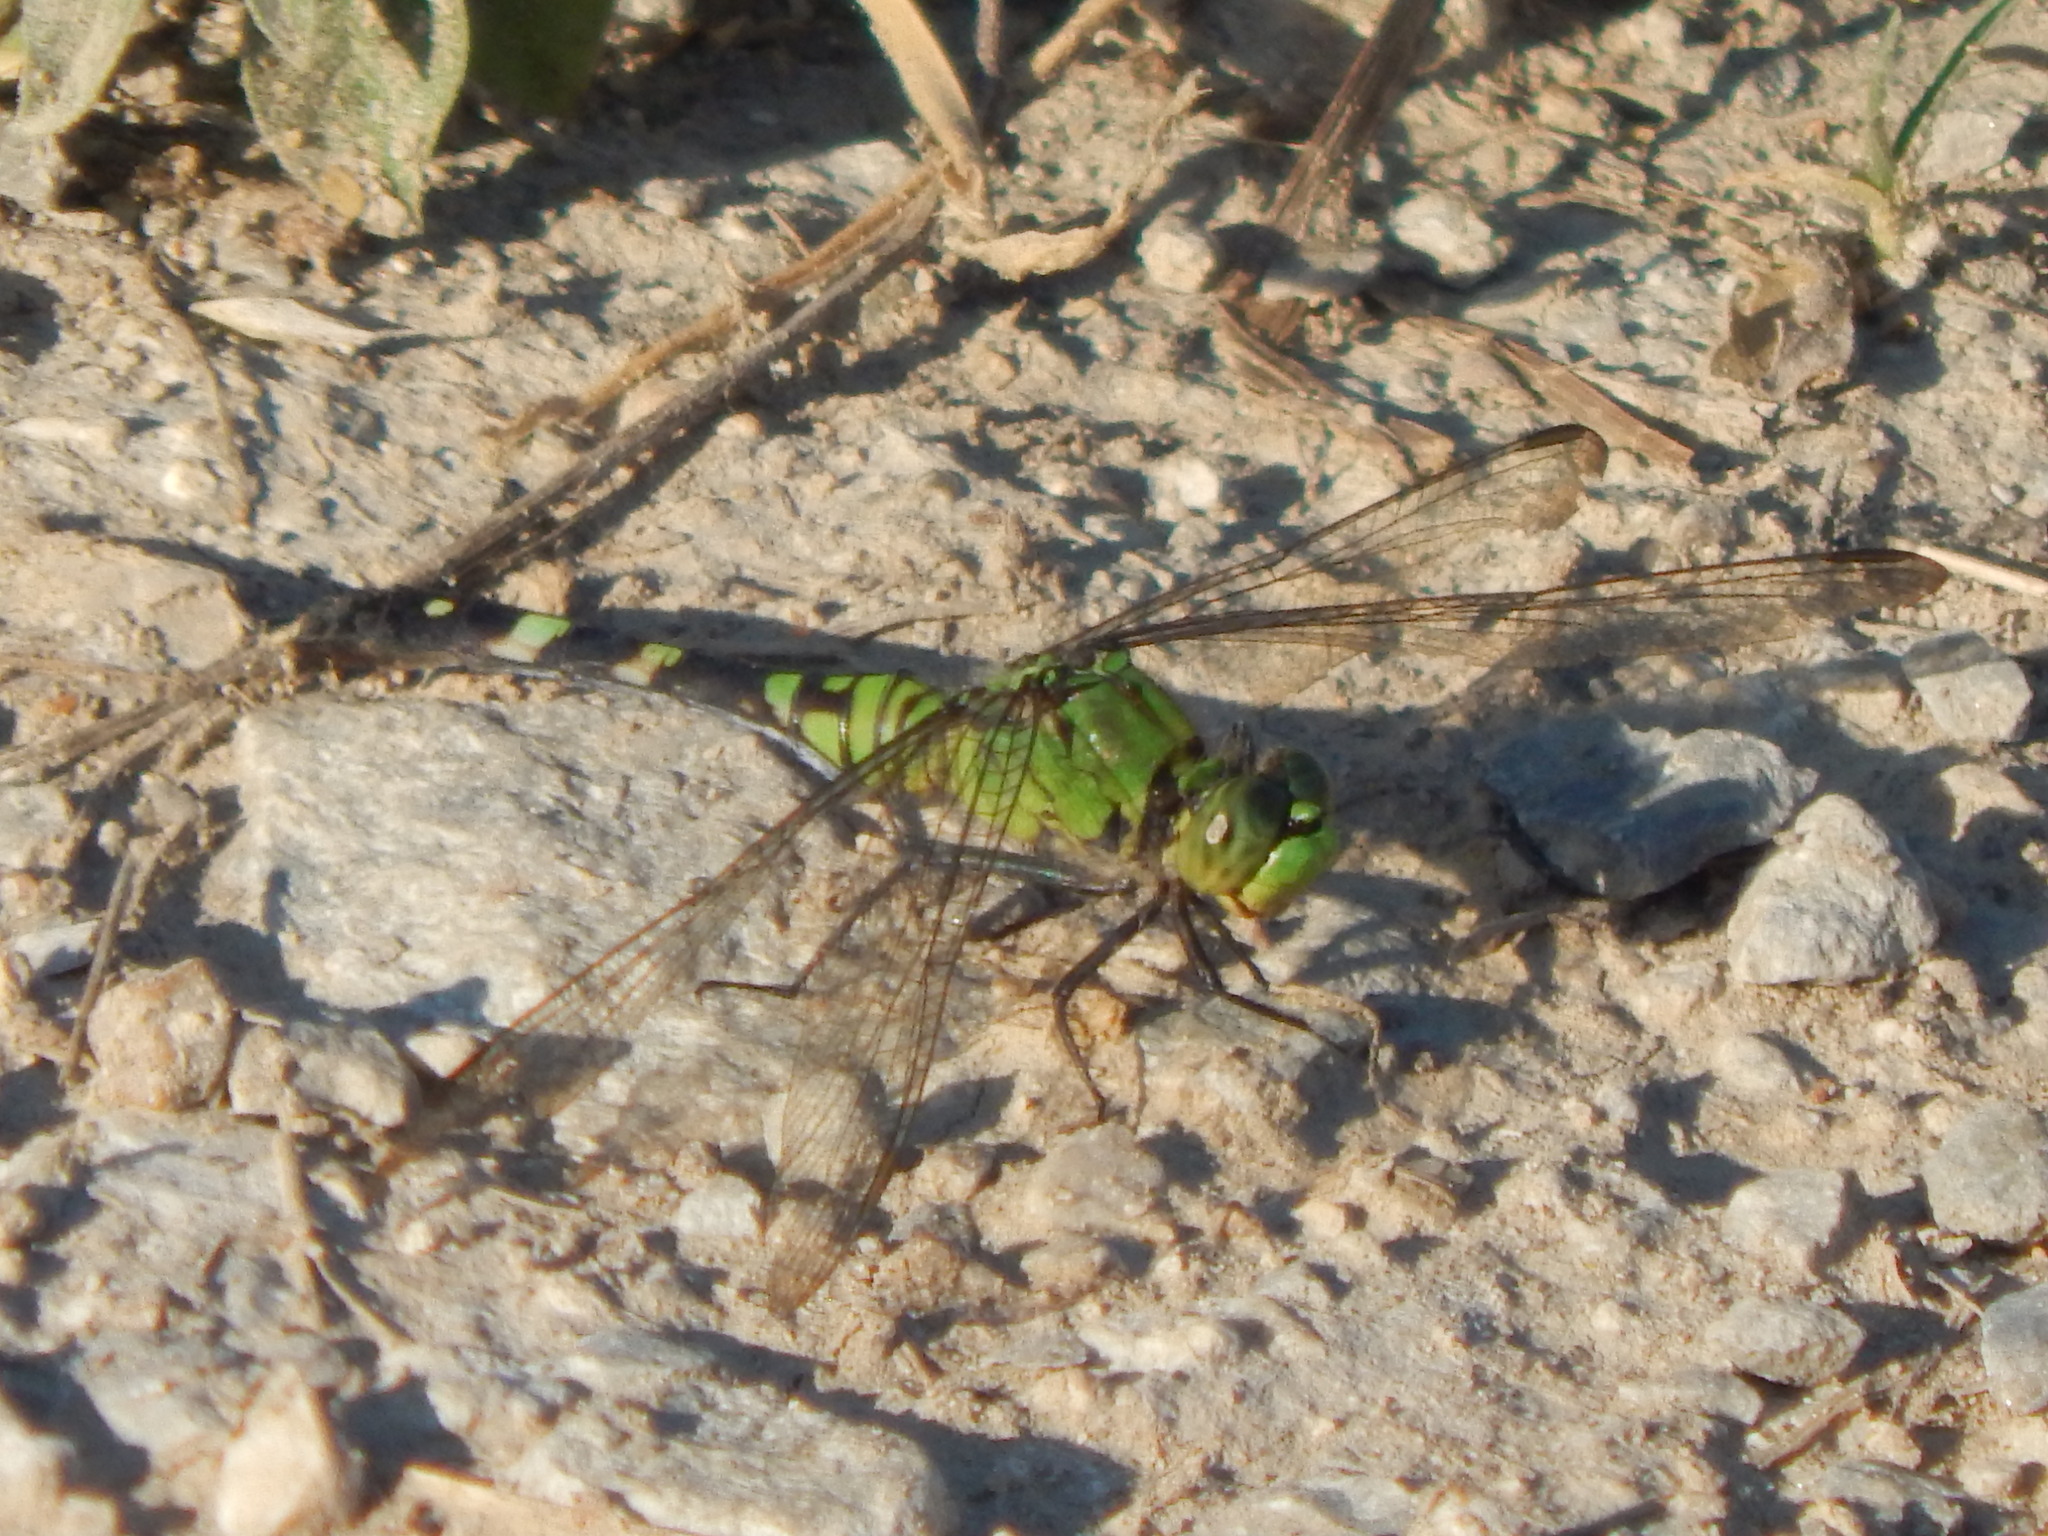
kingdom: Animalia
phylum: Arthropoda
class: Insecta
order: Odonata
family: Libellulidae
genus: Erythemis
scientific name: Erythemis simplicicollis
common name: Eastern pondhawk
